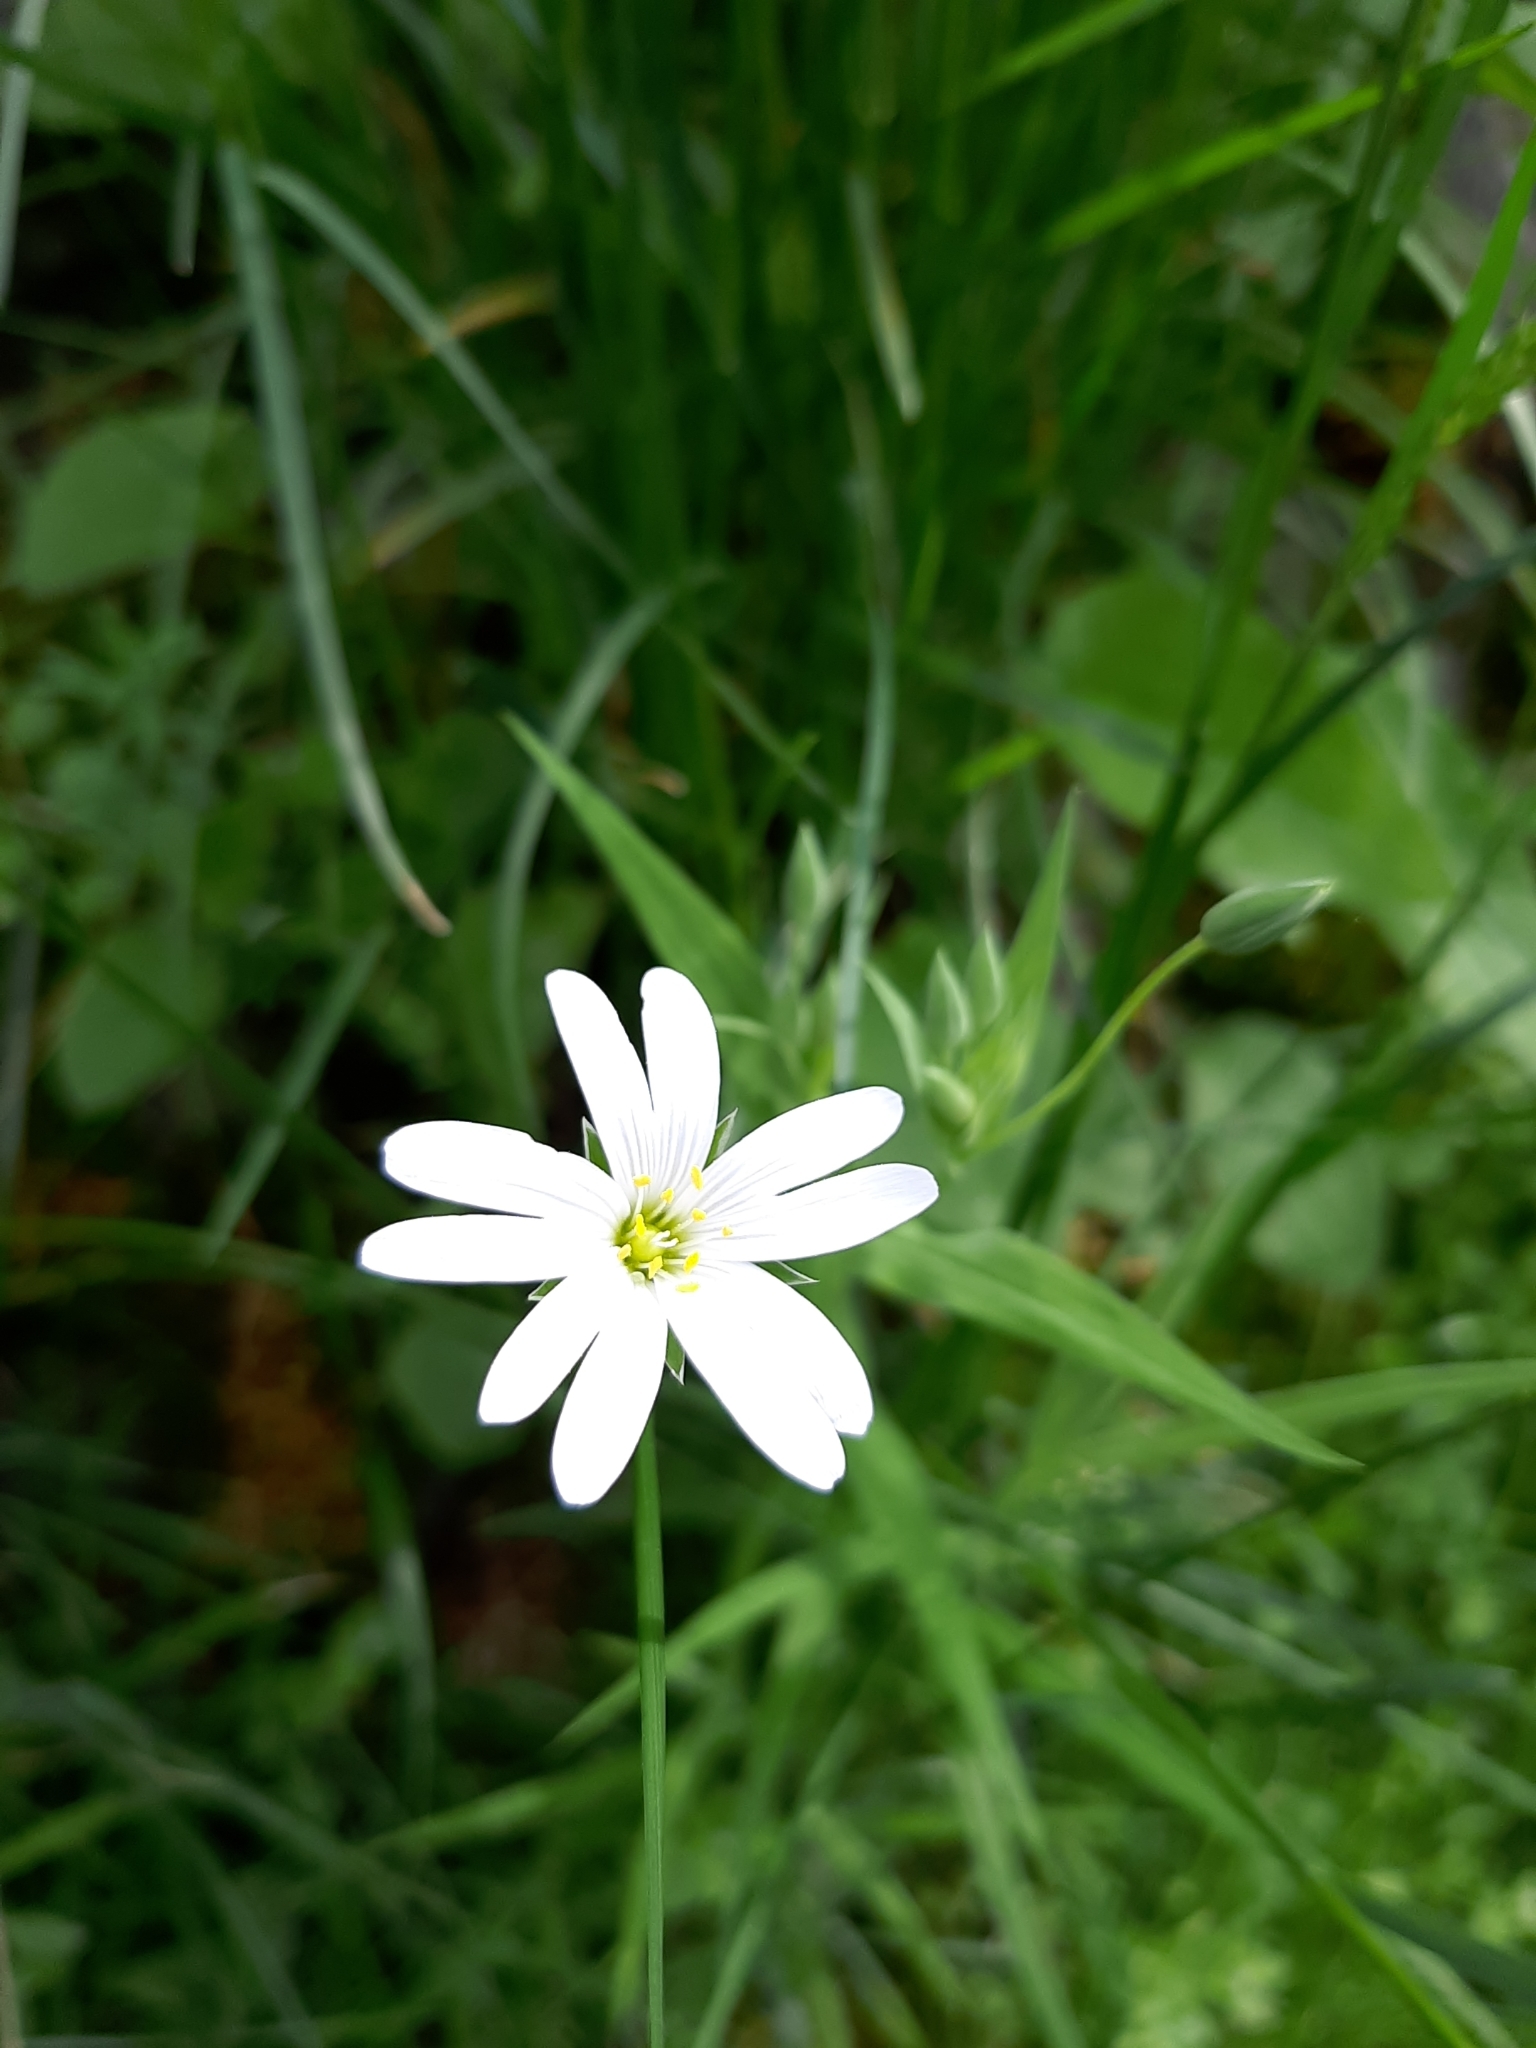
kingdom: Plantae
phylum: Tracheophyta
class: Magnoliopsida
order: Caryophyllales
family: Caryophyllaceae
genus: Rabelera
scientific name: Rabelera holostea
